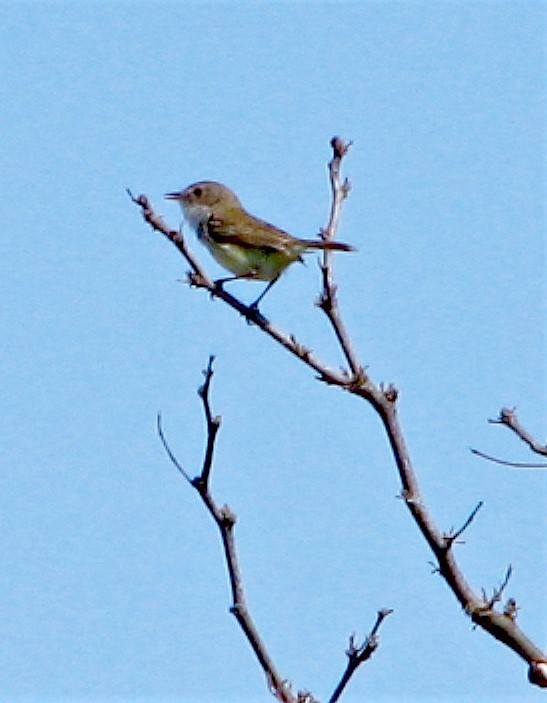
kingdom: Animalia
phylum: Chordata
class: Aves
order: Passeriformes
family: Tyrannidae
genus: Euscarthmus
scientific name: Euscarthmus meloryphus
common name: Tawny-crowned pygmy tyrant
